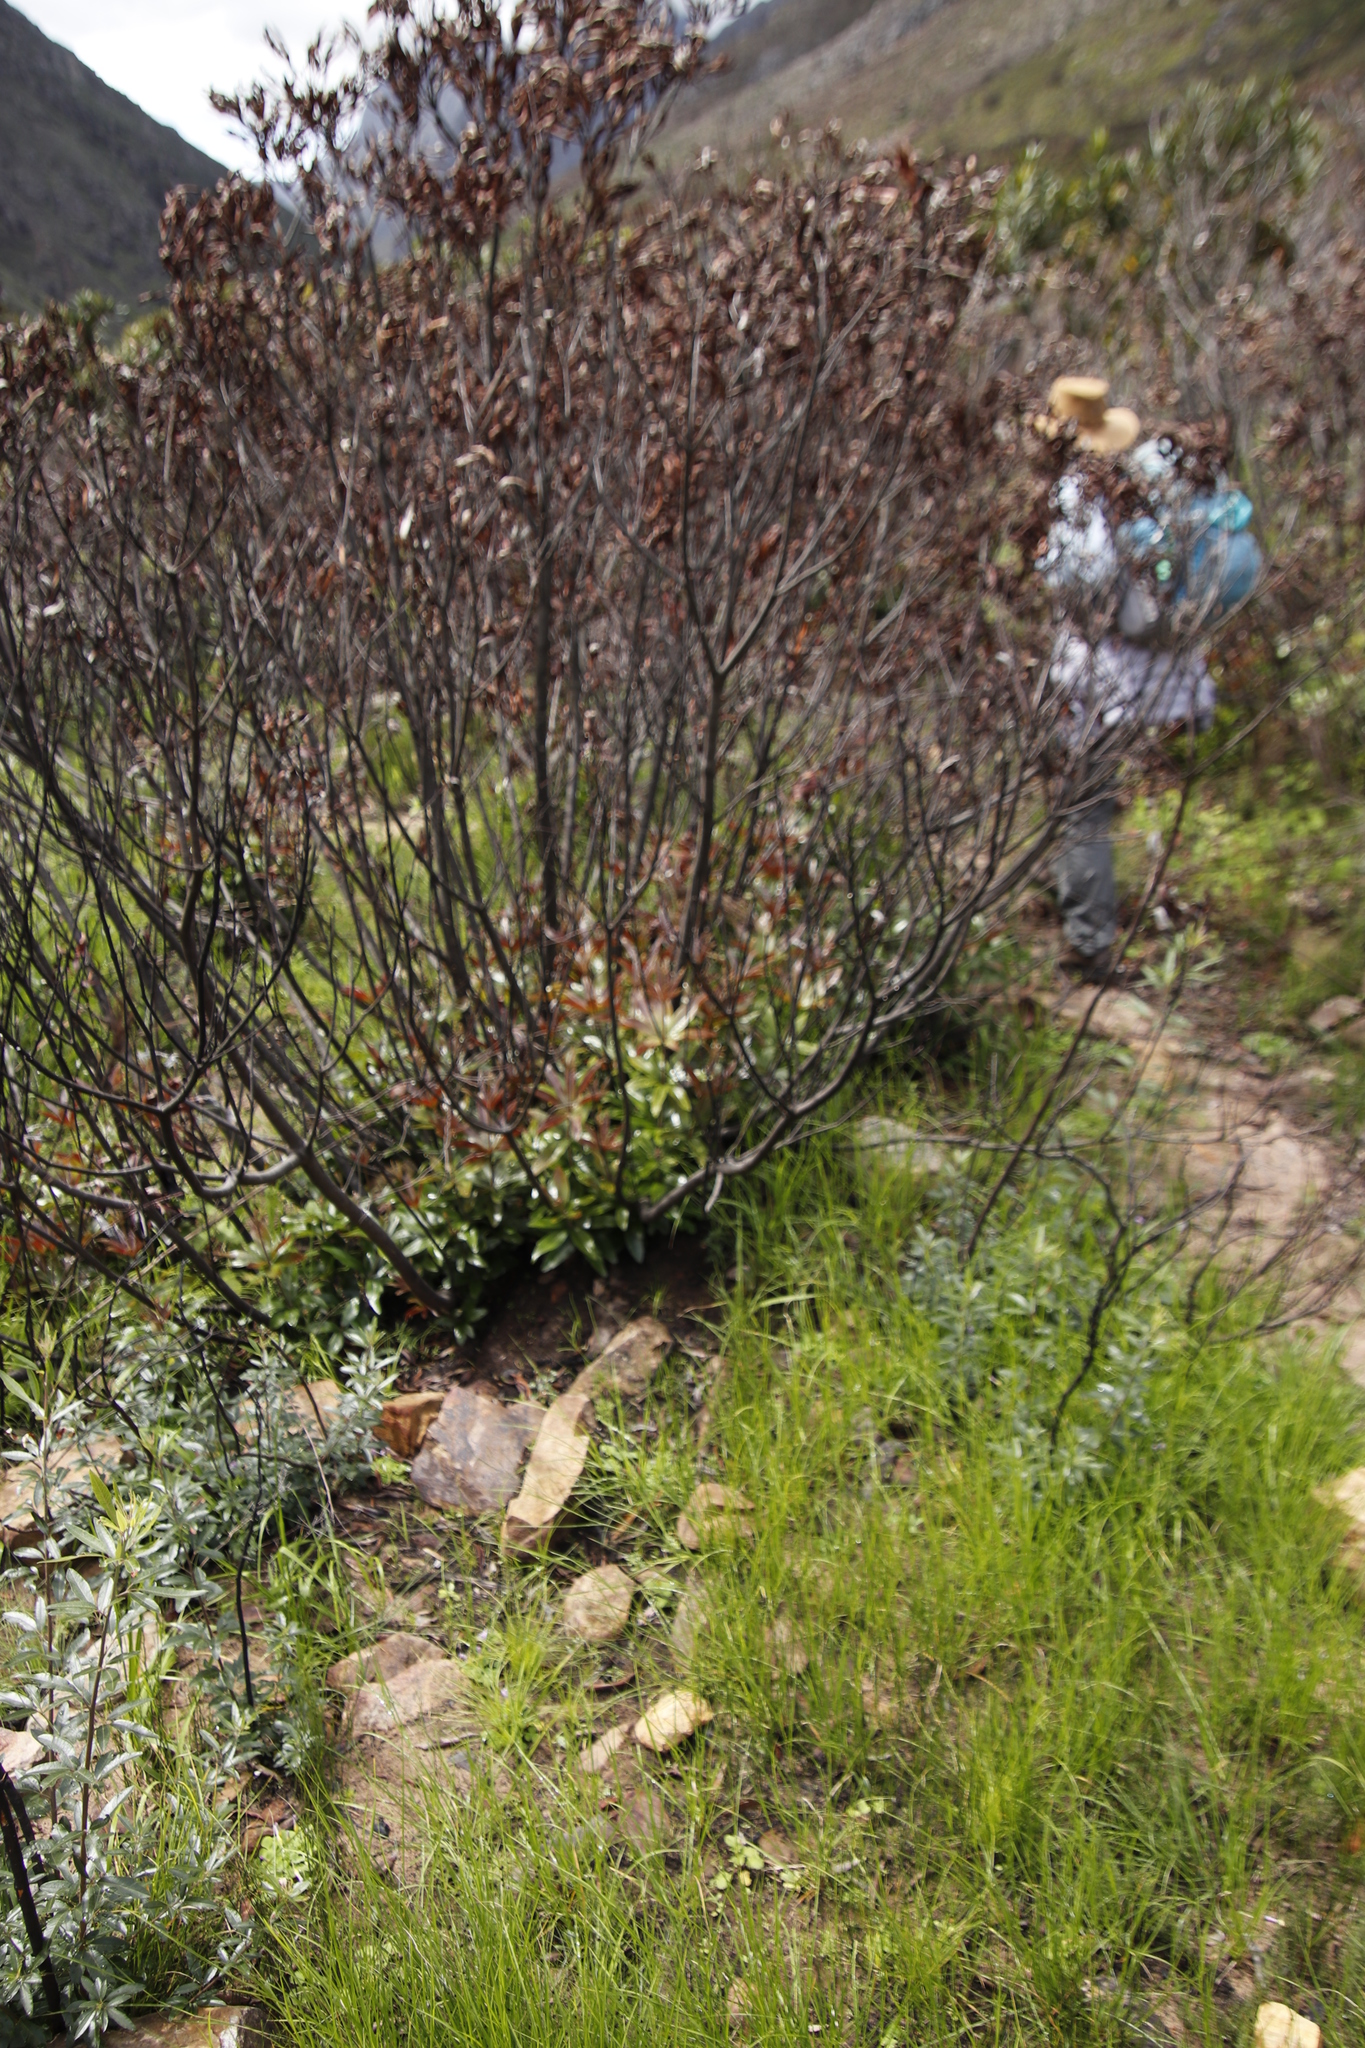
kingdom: Plantae
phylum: Tracheophyta
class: Magnoliopsida
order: Proteales
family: Proteaceae
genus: Brabejum
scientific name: Brabejum stellatifolium
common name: Wild almond
